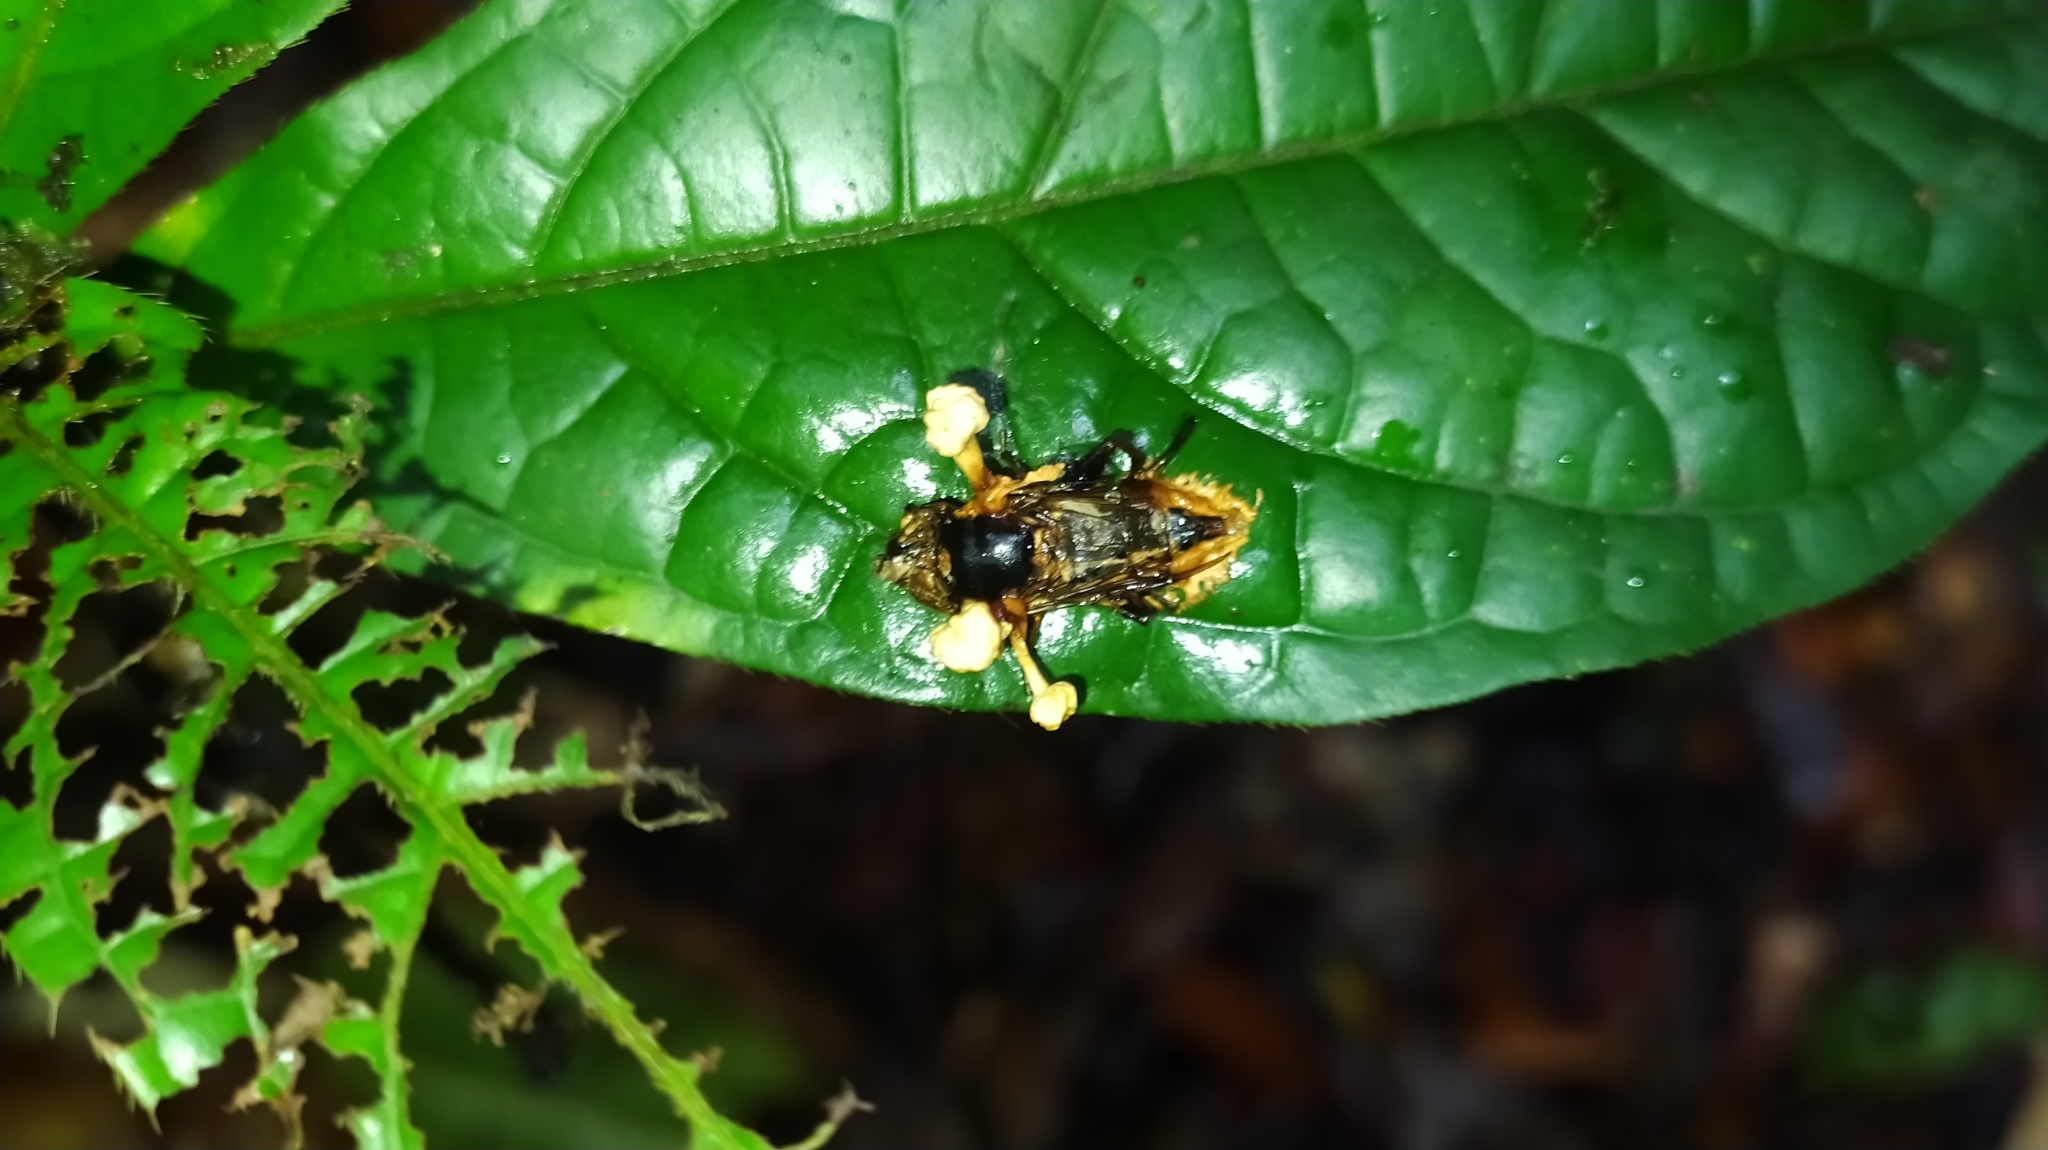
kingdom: Fungi
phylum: Ascomycota
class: Sordariomycetes
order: Hypocreales
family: Ophiocordycipitaceae
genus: Ophiocordyceps
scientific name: Ophiocordyceps dipterigena
